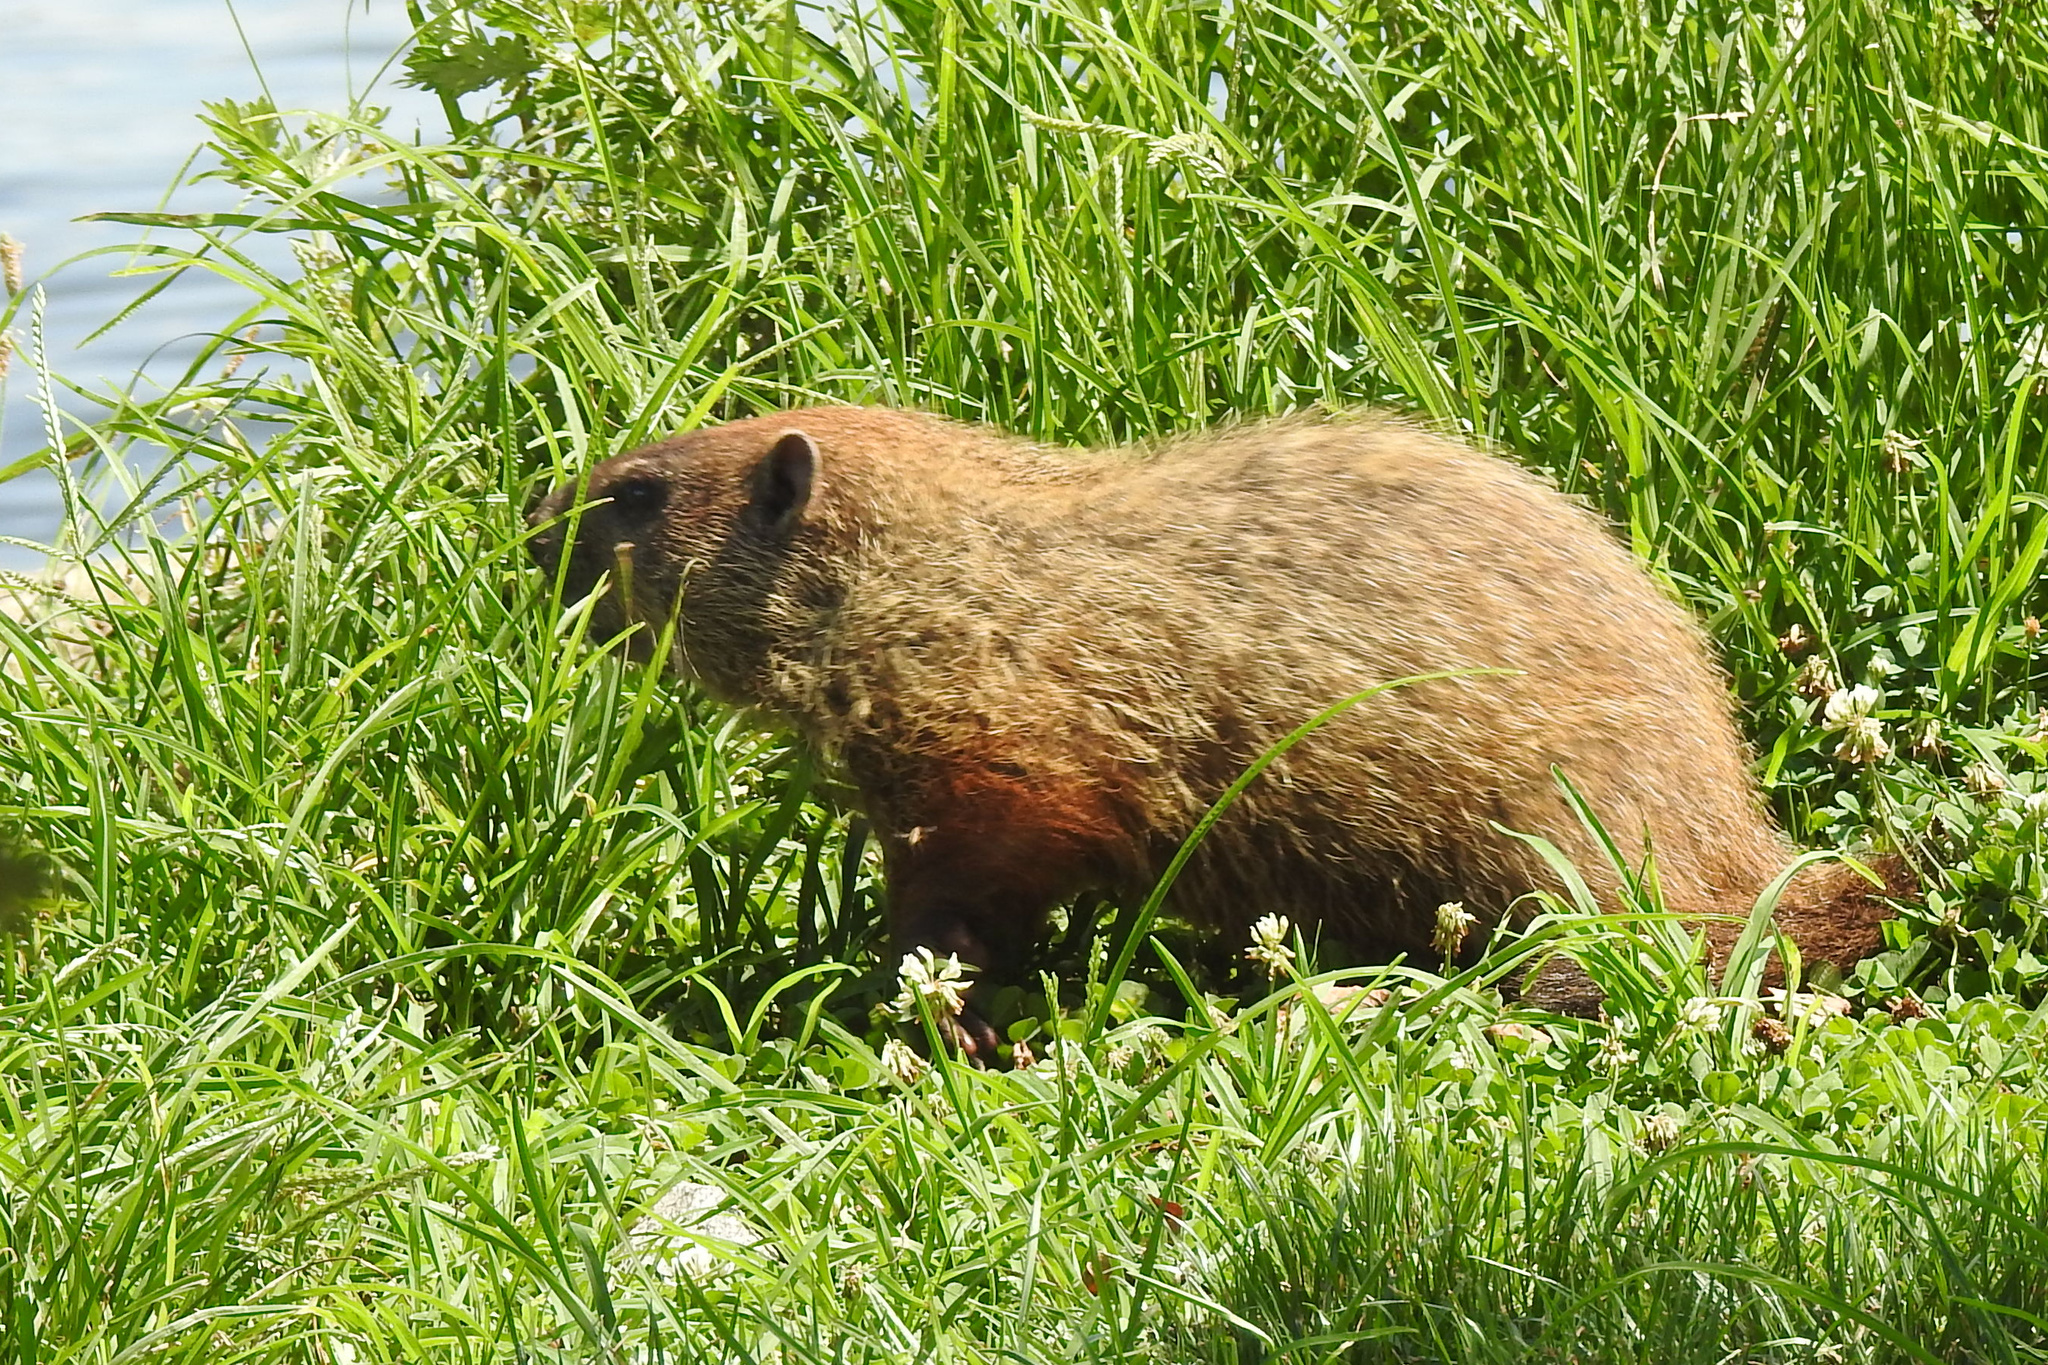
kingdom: Animalia
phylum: Chordata
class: Mammalia
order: Rodentia
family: Sciuridae
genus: Marmota
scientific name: Marmota monax
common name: Groundhog
